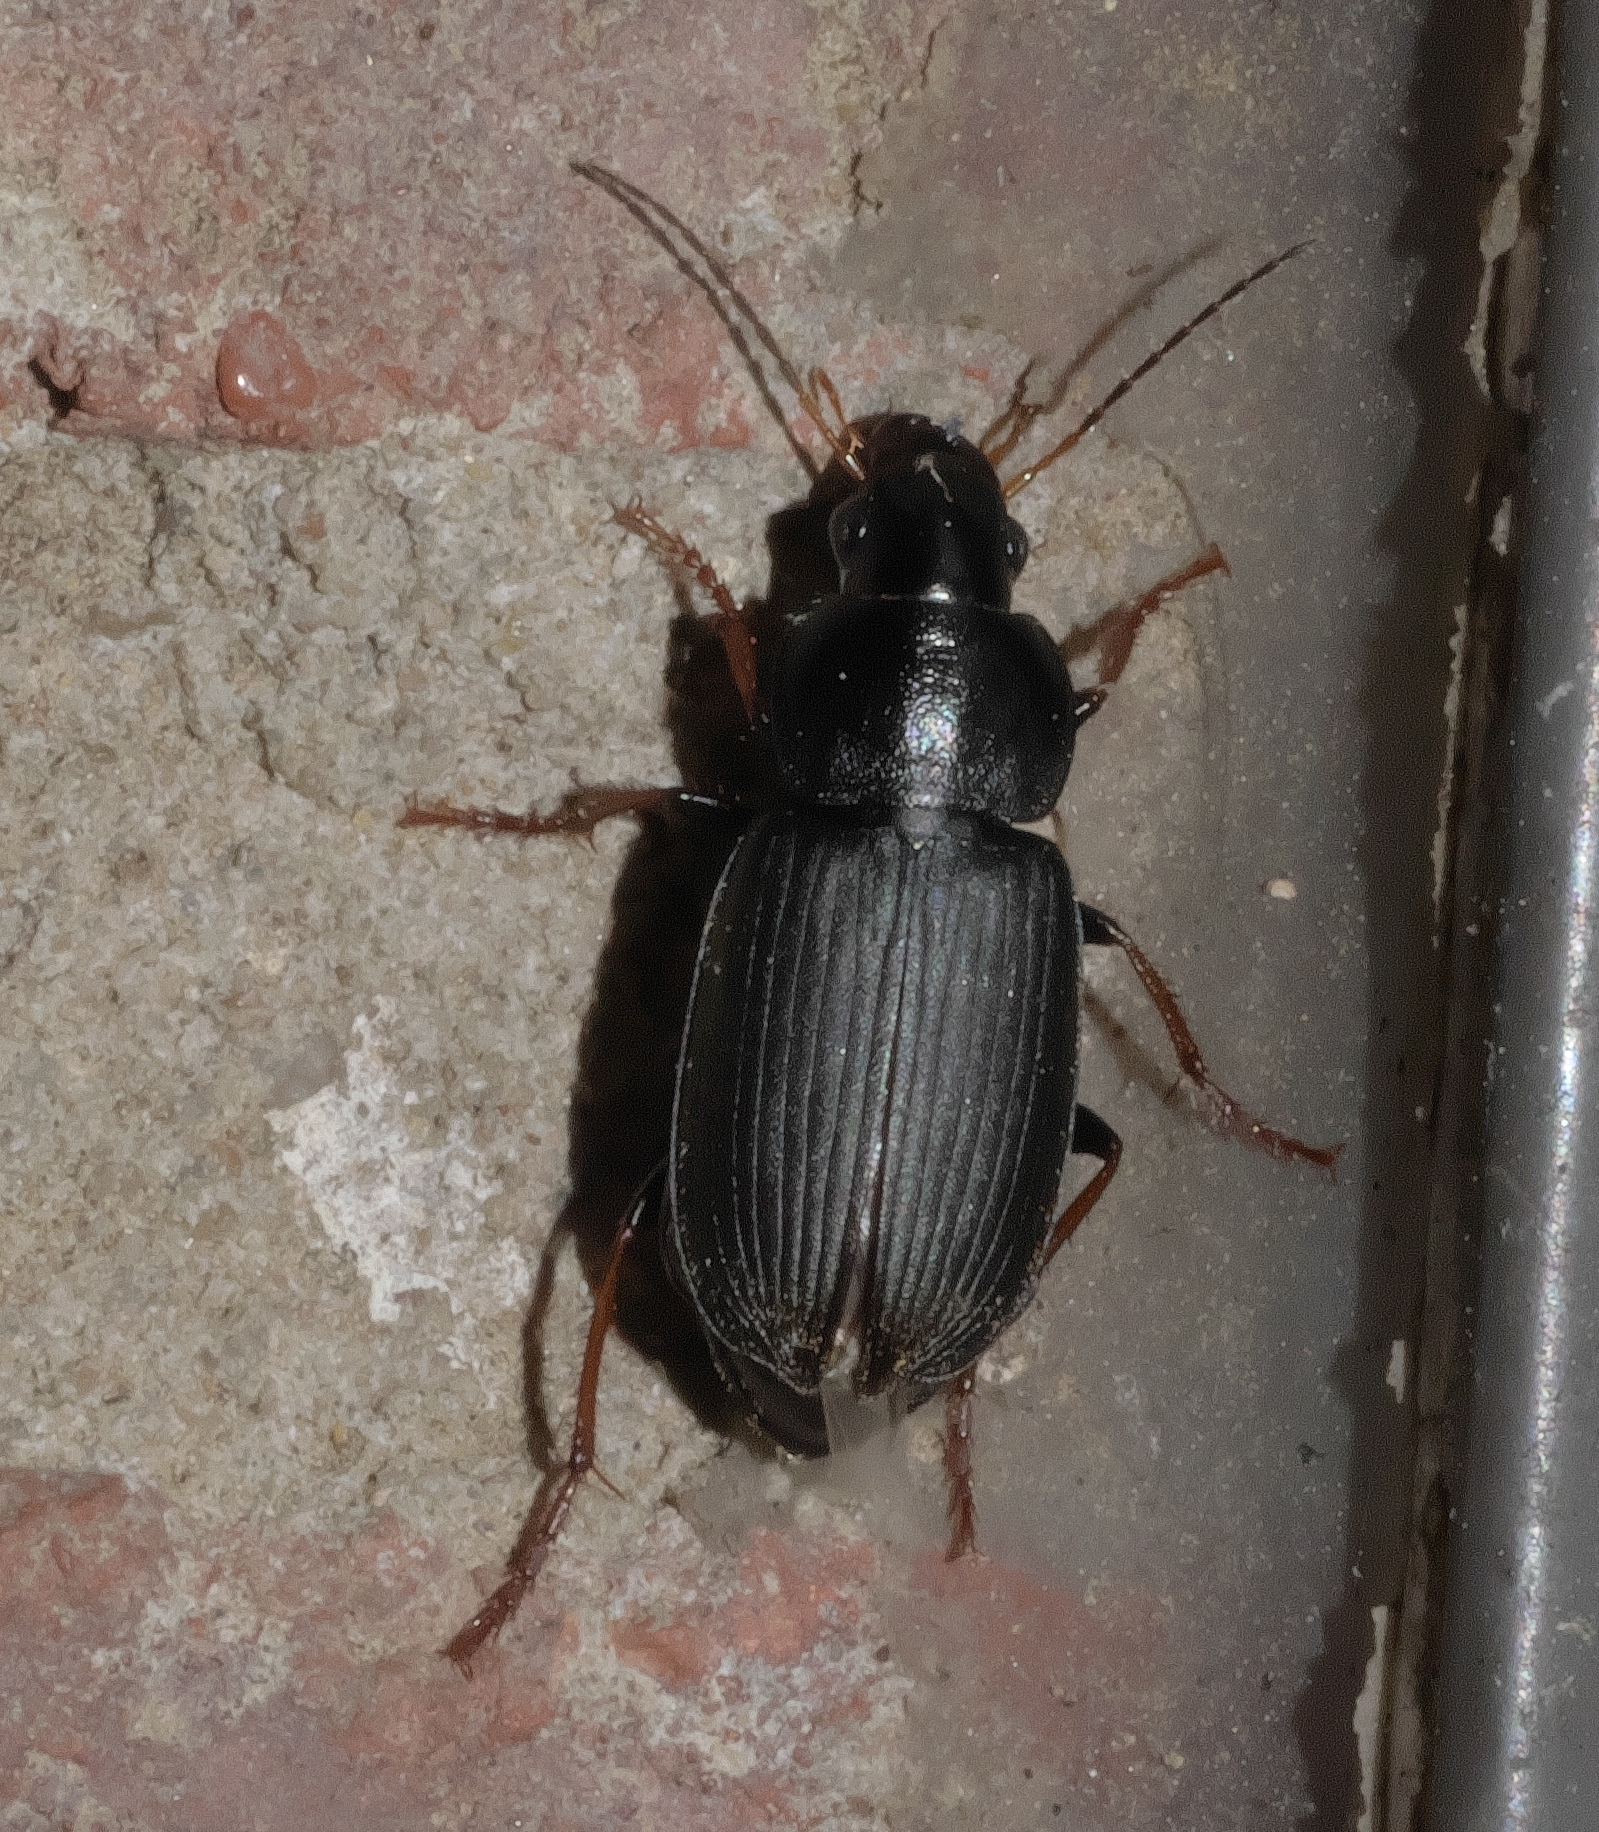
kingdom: Animalia
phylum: Arthropoda
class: Insecta
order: Coleoptera
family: Carabidae
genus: Amphasia
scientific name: Amphasia sericea
